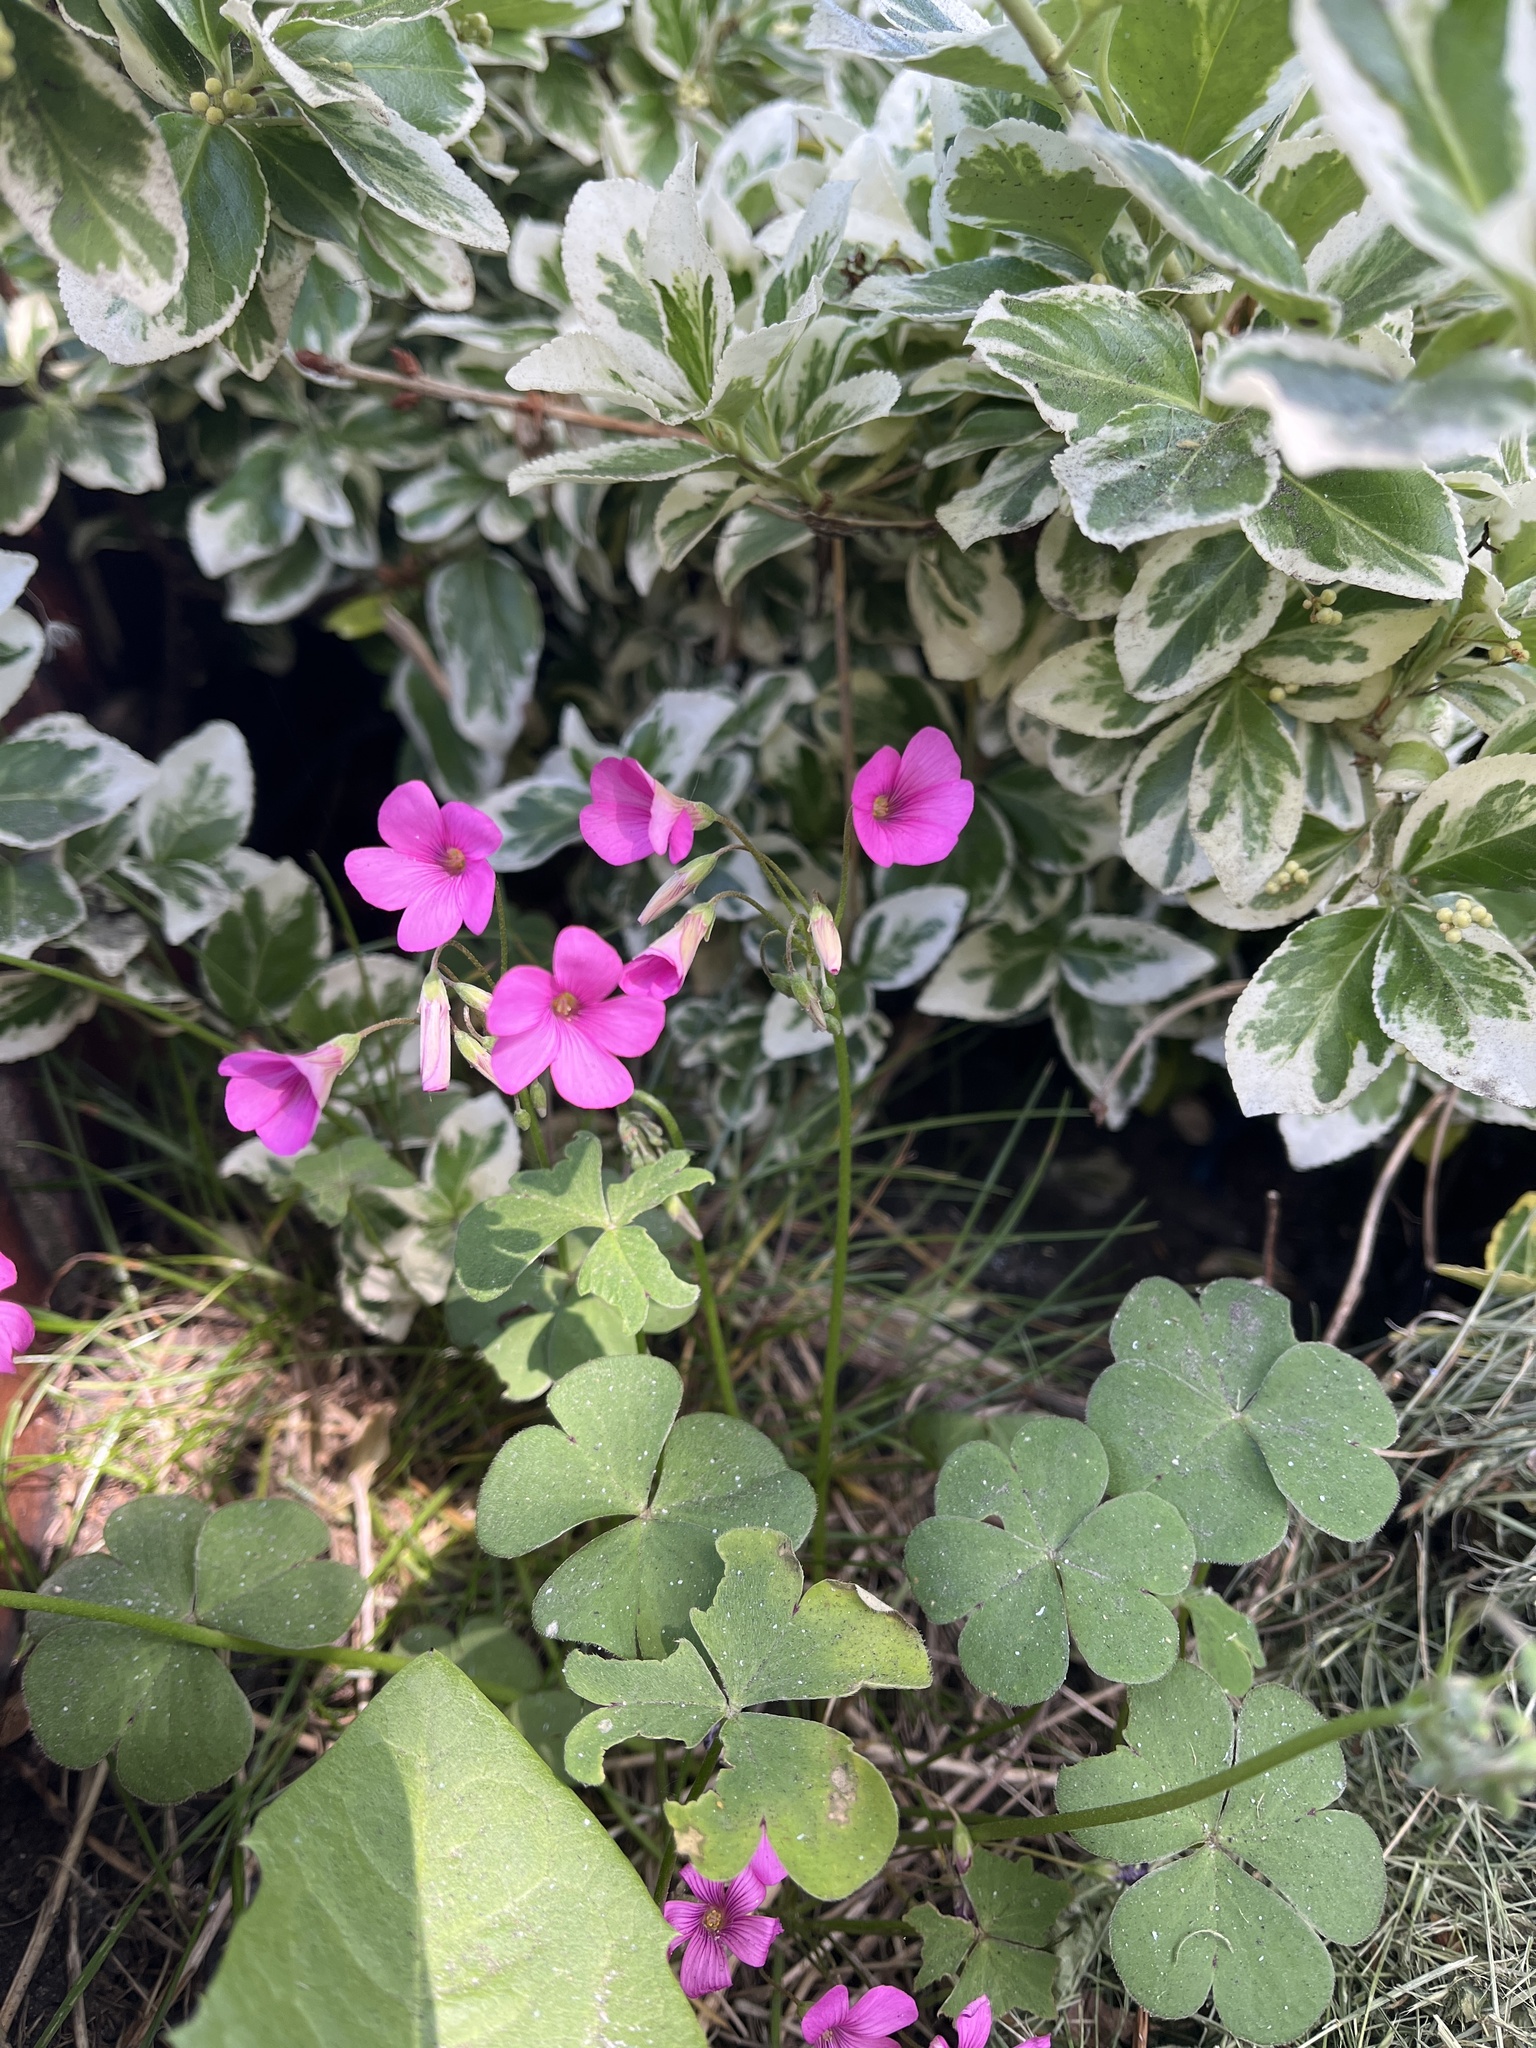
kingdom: Plantae
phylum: Tracheophyta
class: Magnoliopsida
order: Oxalidales
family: Oxalidaceae
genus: Oxalis
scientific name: Oxalis articulata
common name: Pink-sorrel
